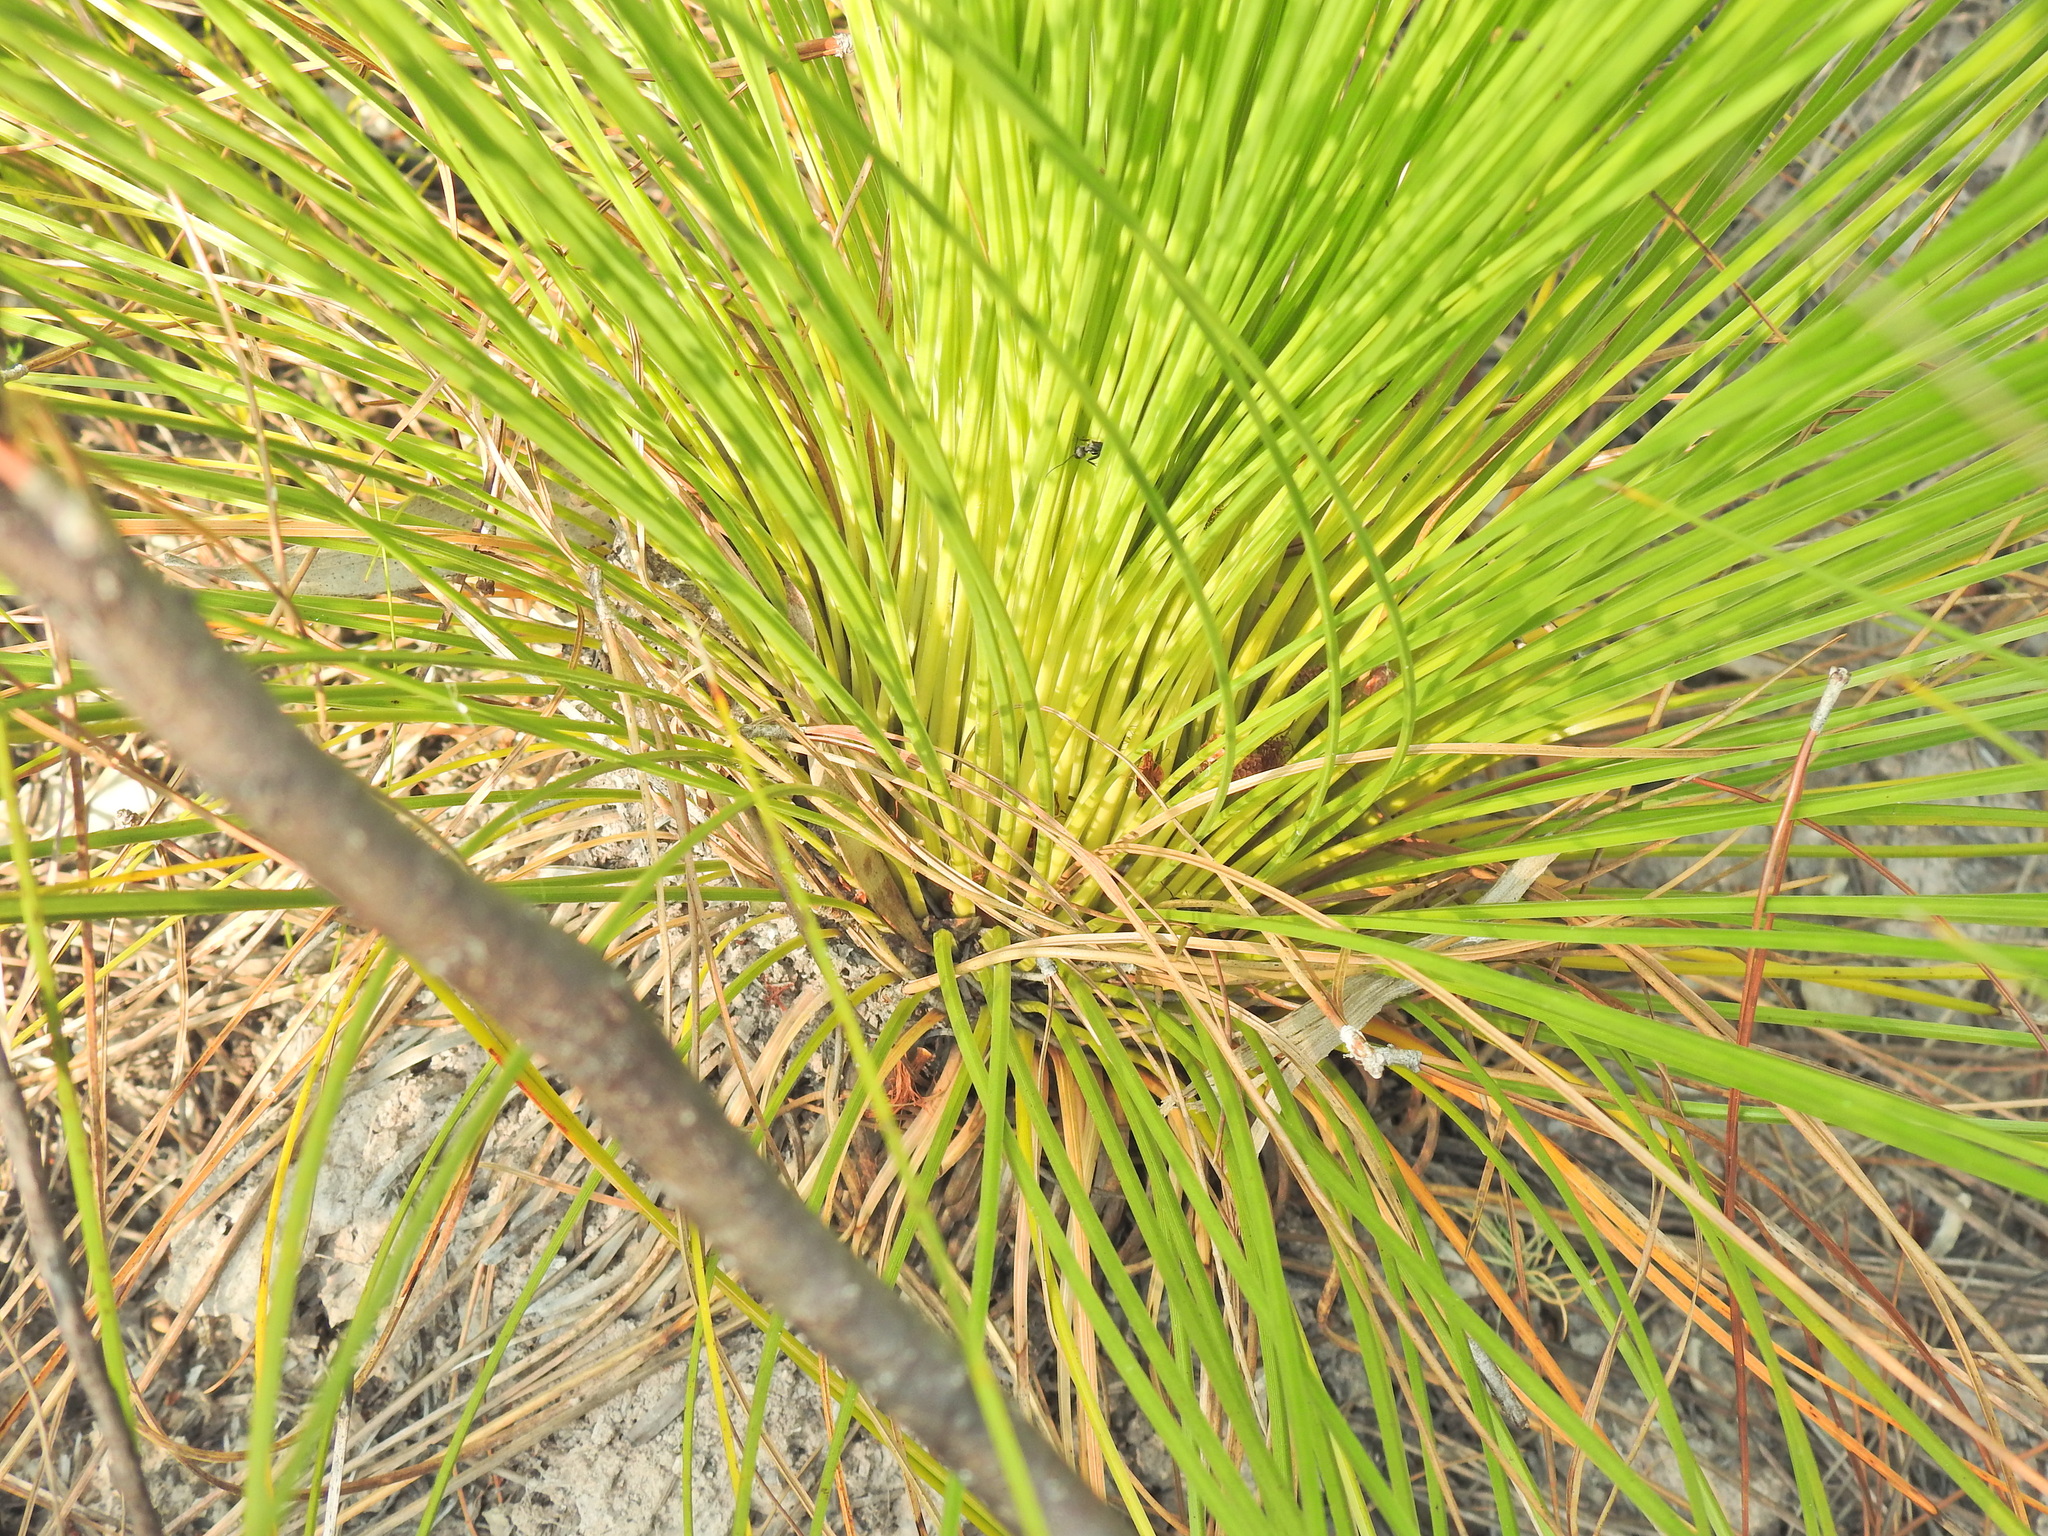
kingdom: Plantae
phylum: Tracheophyta
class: Liliopsida
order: Asparagales
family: Asphodelaceae
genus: Xanthorrhoea
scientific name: Xanthorrhoea johnsonii
